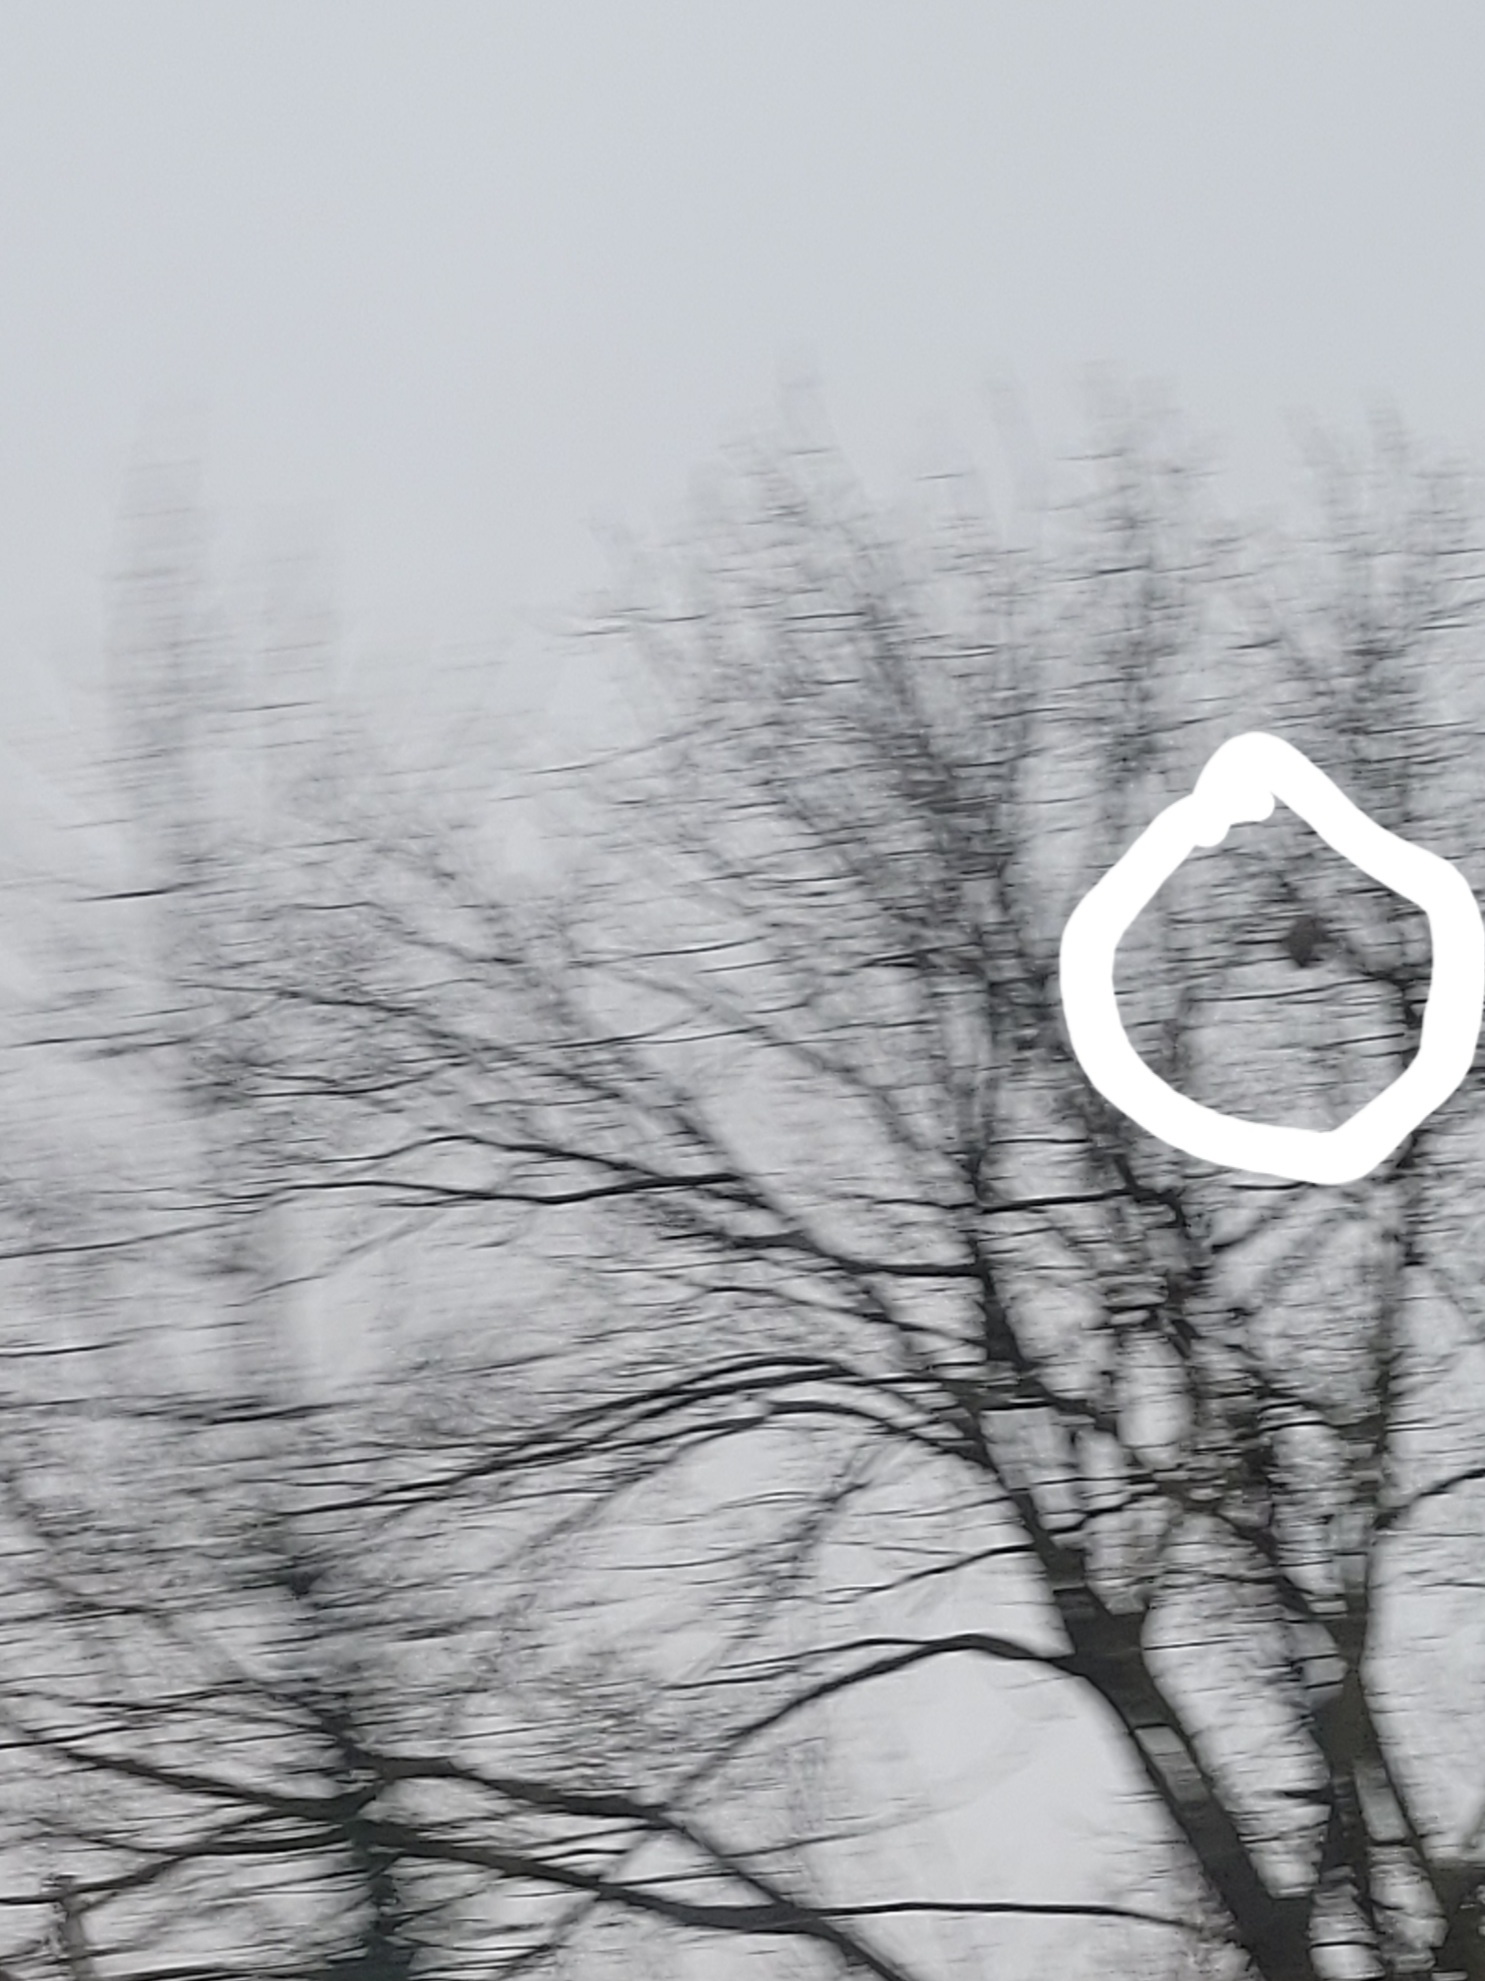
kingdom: Animalia
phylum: Arthropoda
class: Insecta
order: Hymenoptera
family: Vespidae
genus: Vespa
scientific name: Vespa velutina
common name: Asian hornet
